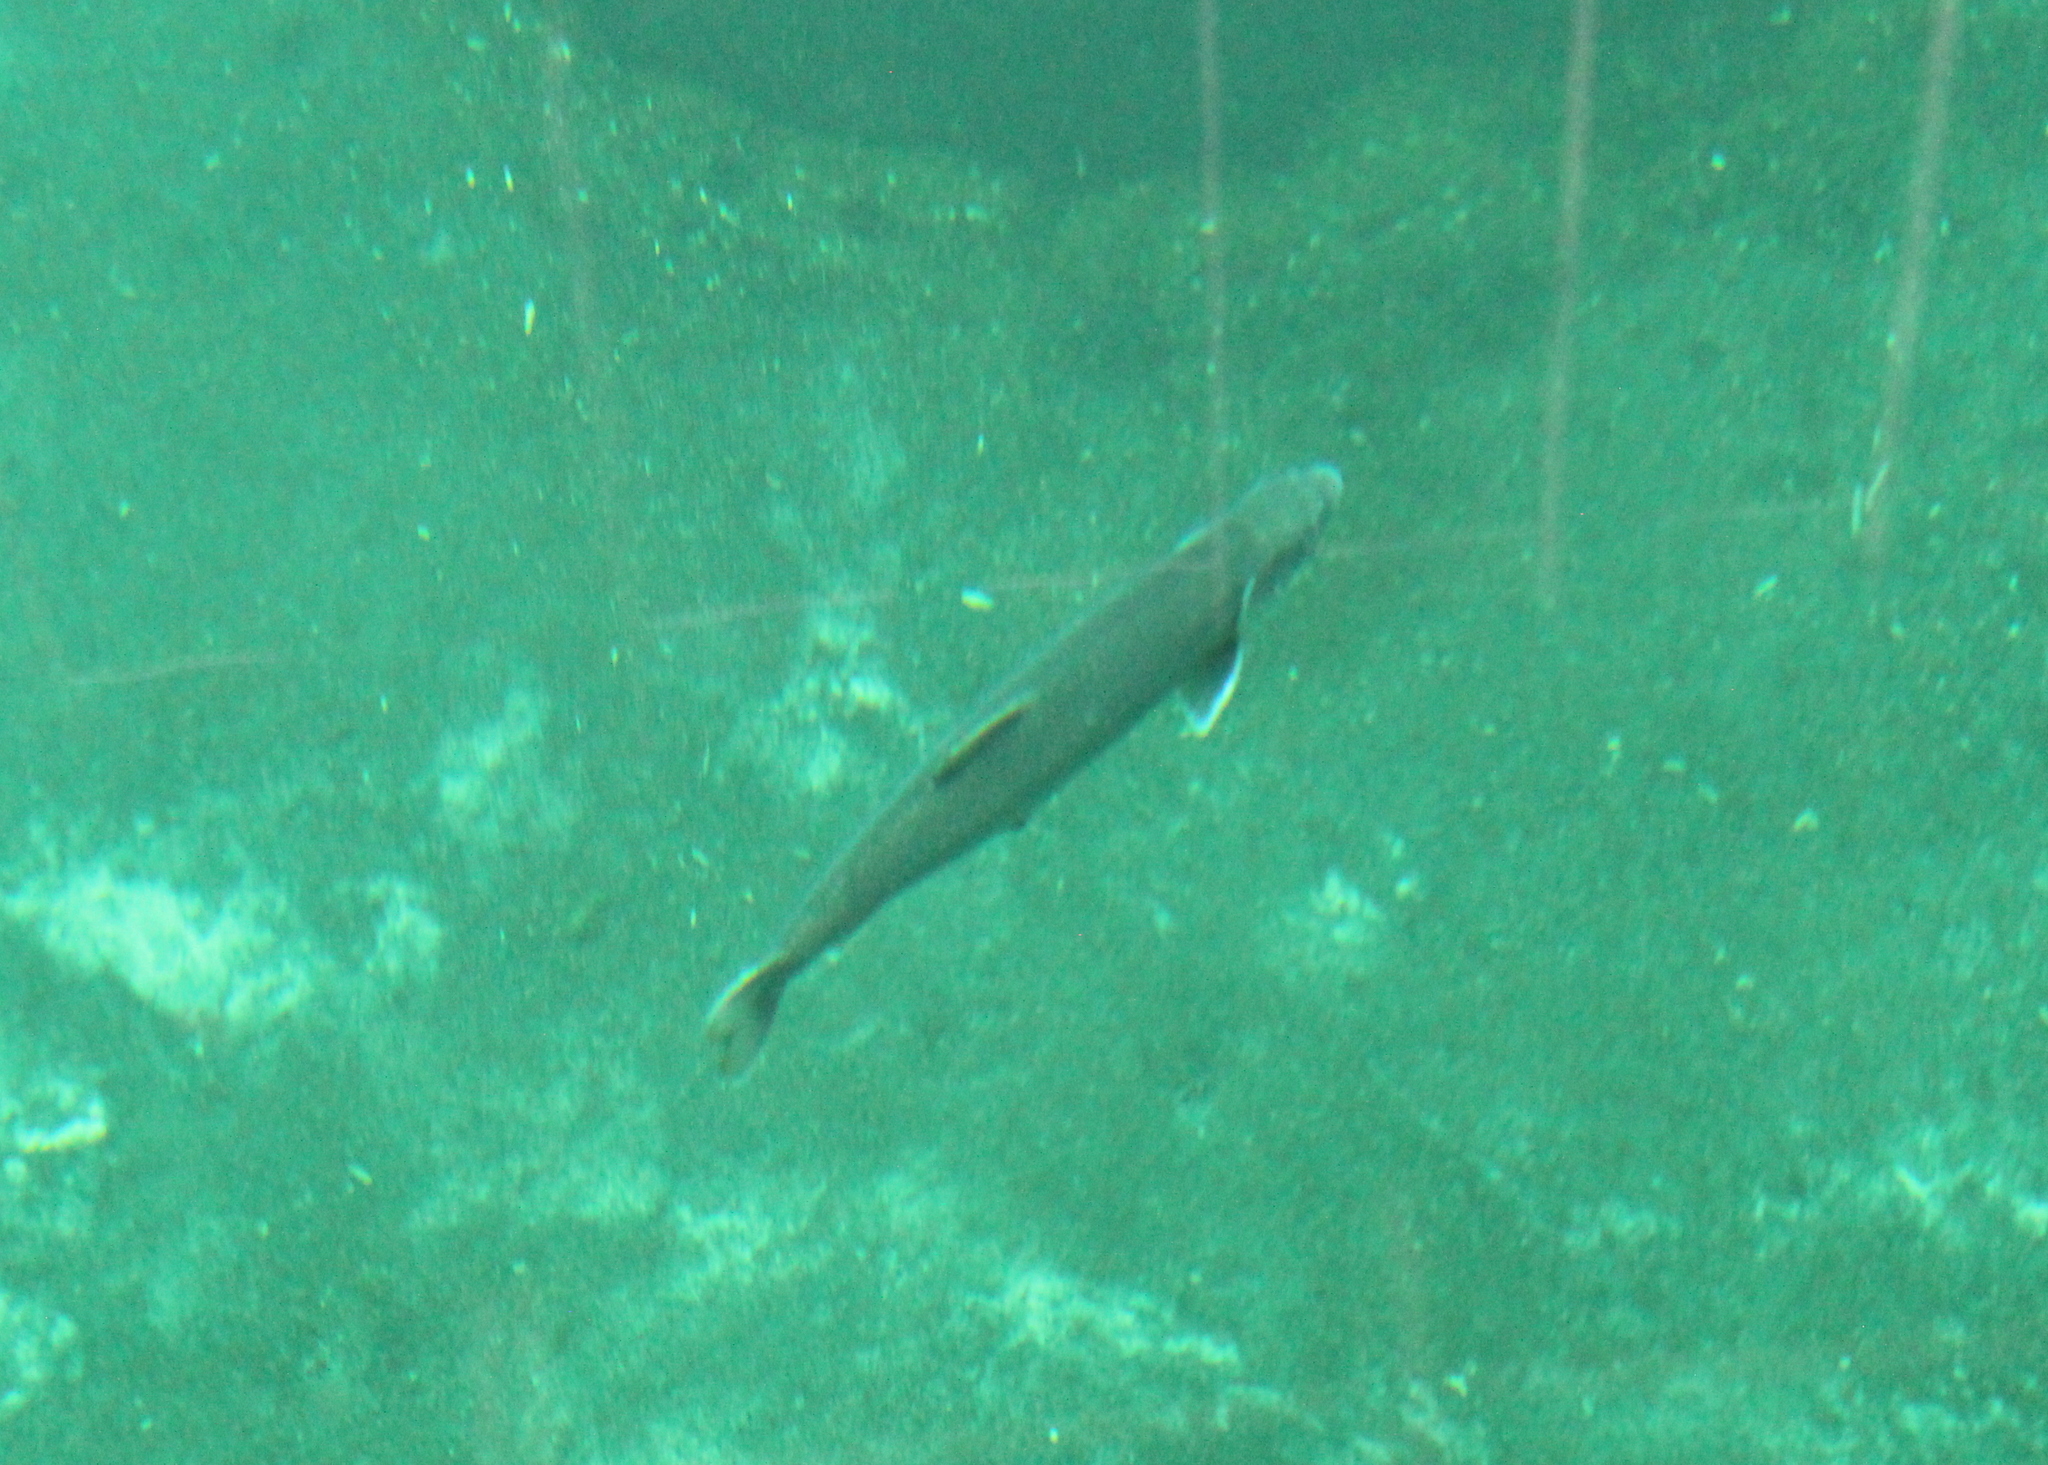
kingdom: Animalia
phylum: Chordata
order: Salmoniformes
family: Salmonidae
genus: Salvelinus
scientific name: Salvelinus namaycush
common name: American lake charr
